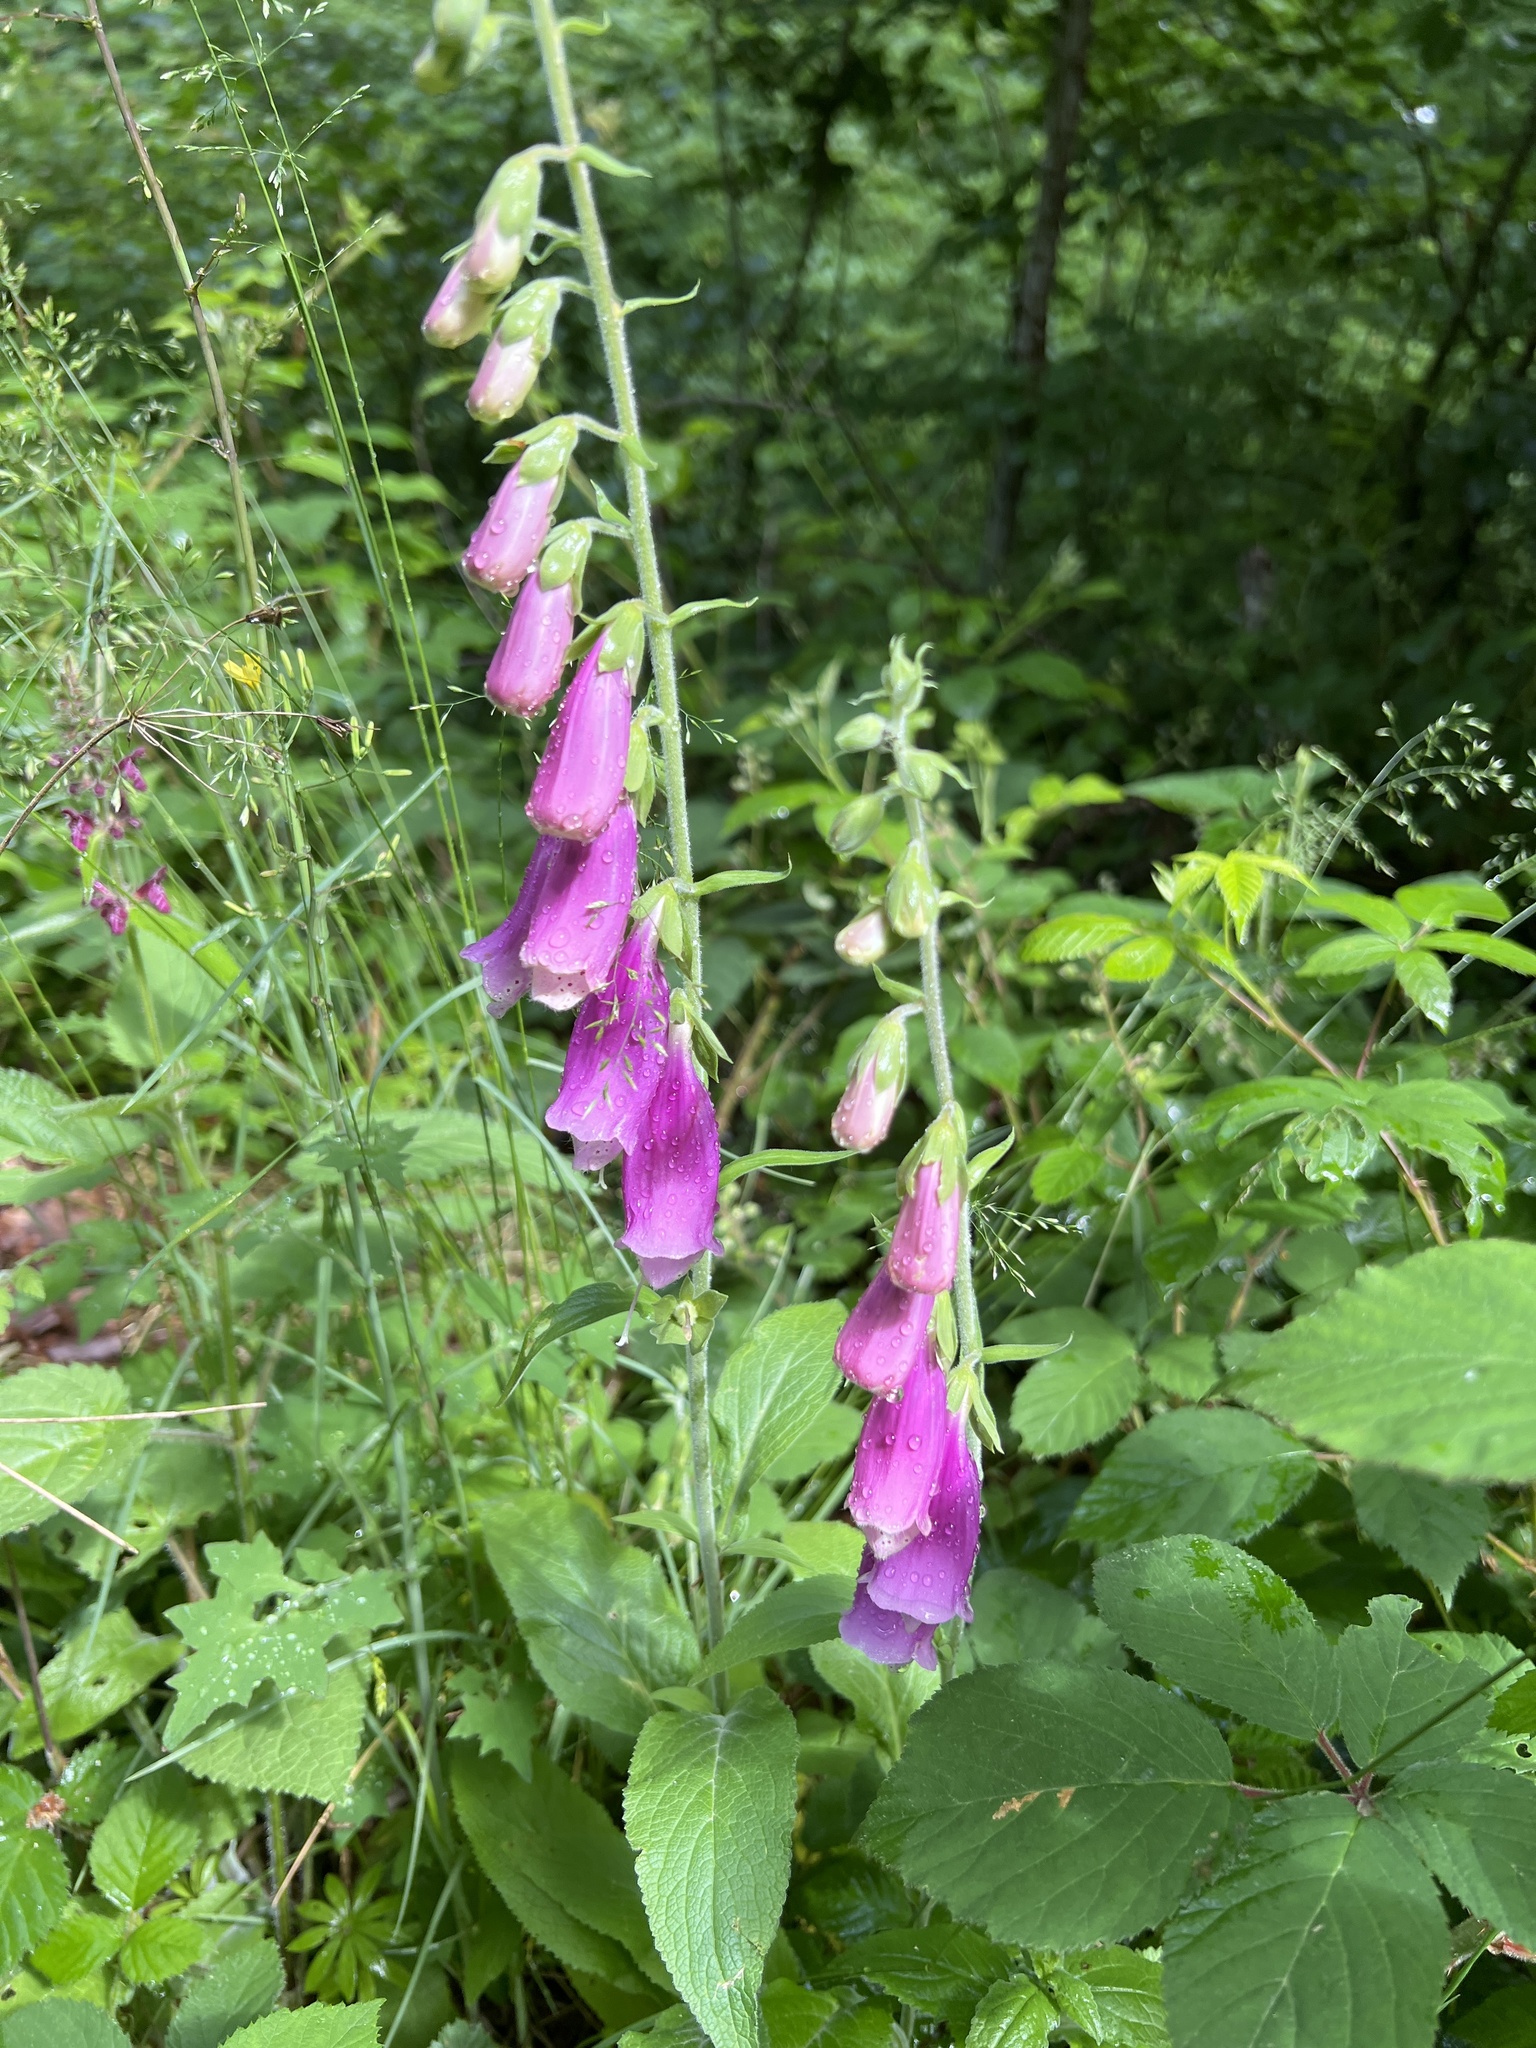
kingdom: Plantae
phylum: Tracheophyta
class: Magnoliopsida
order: Lamiales
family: Plantaginaceae
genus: Digitalis
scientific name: Digitalis purpurea
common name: Foxglove
